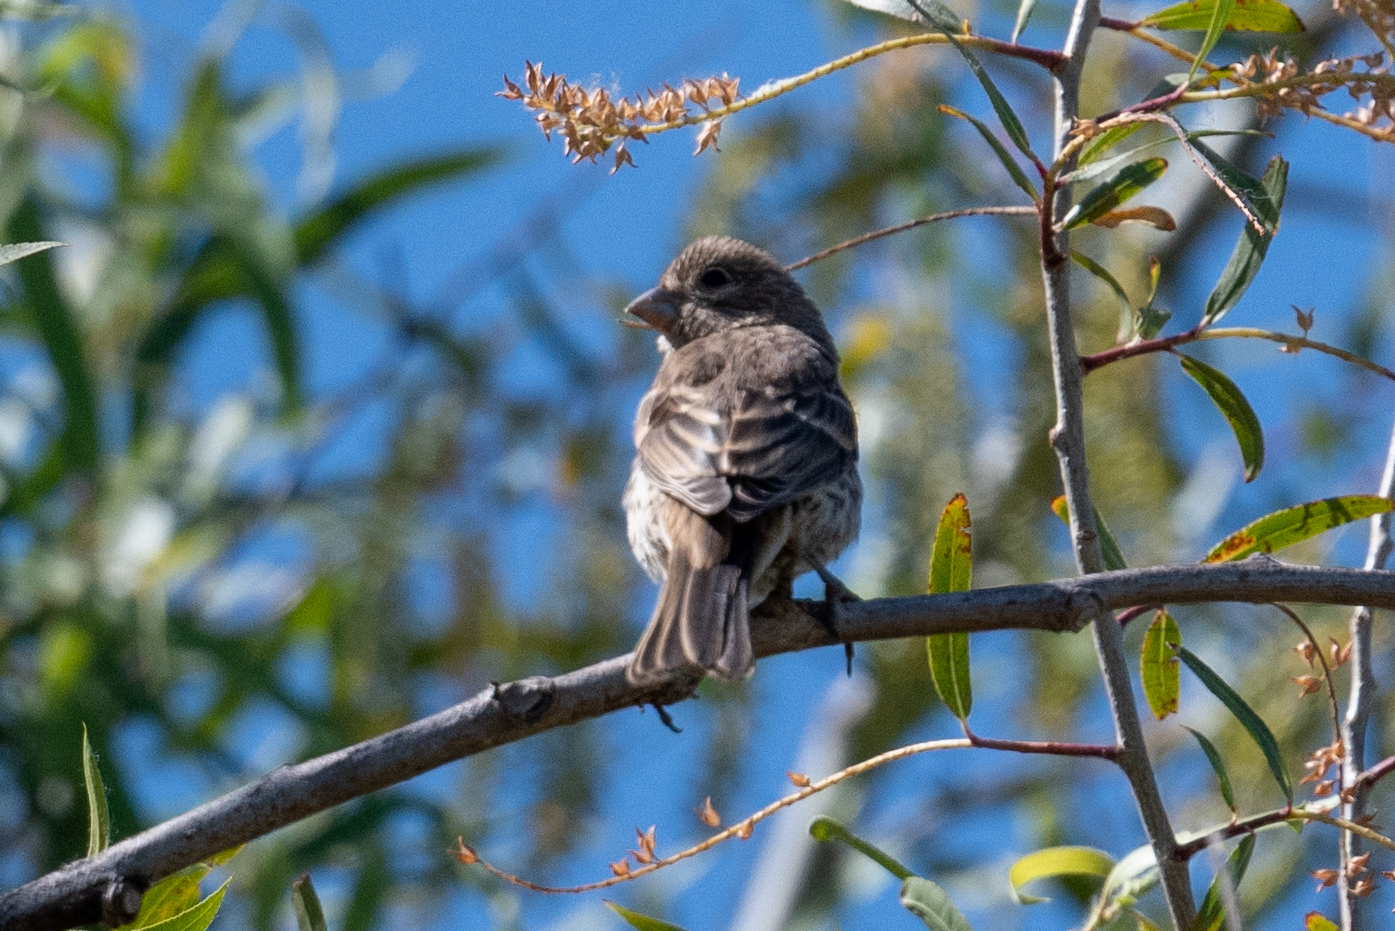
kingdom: Animalia
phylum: Chordata
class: Aves
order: Passeriformes
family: Fringillidae
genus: Haemorhous
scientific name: Haemorhous mexicanus
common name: House finch
